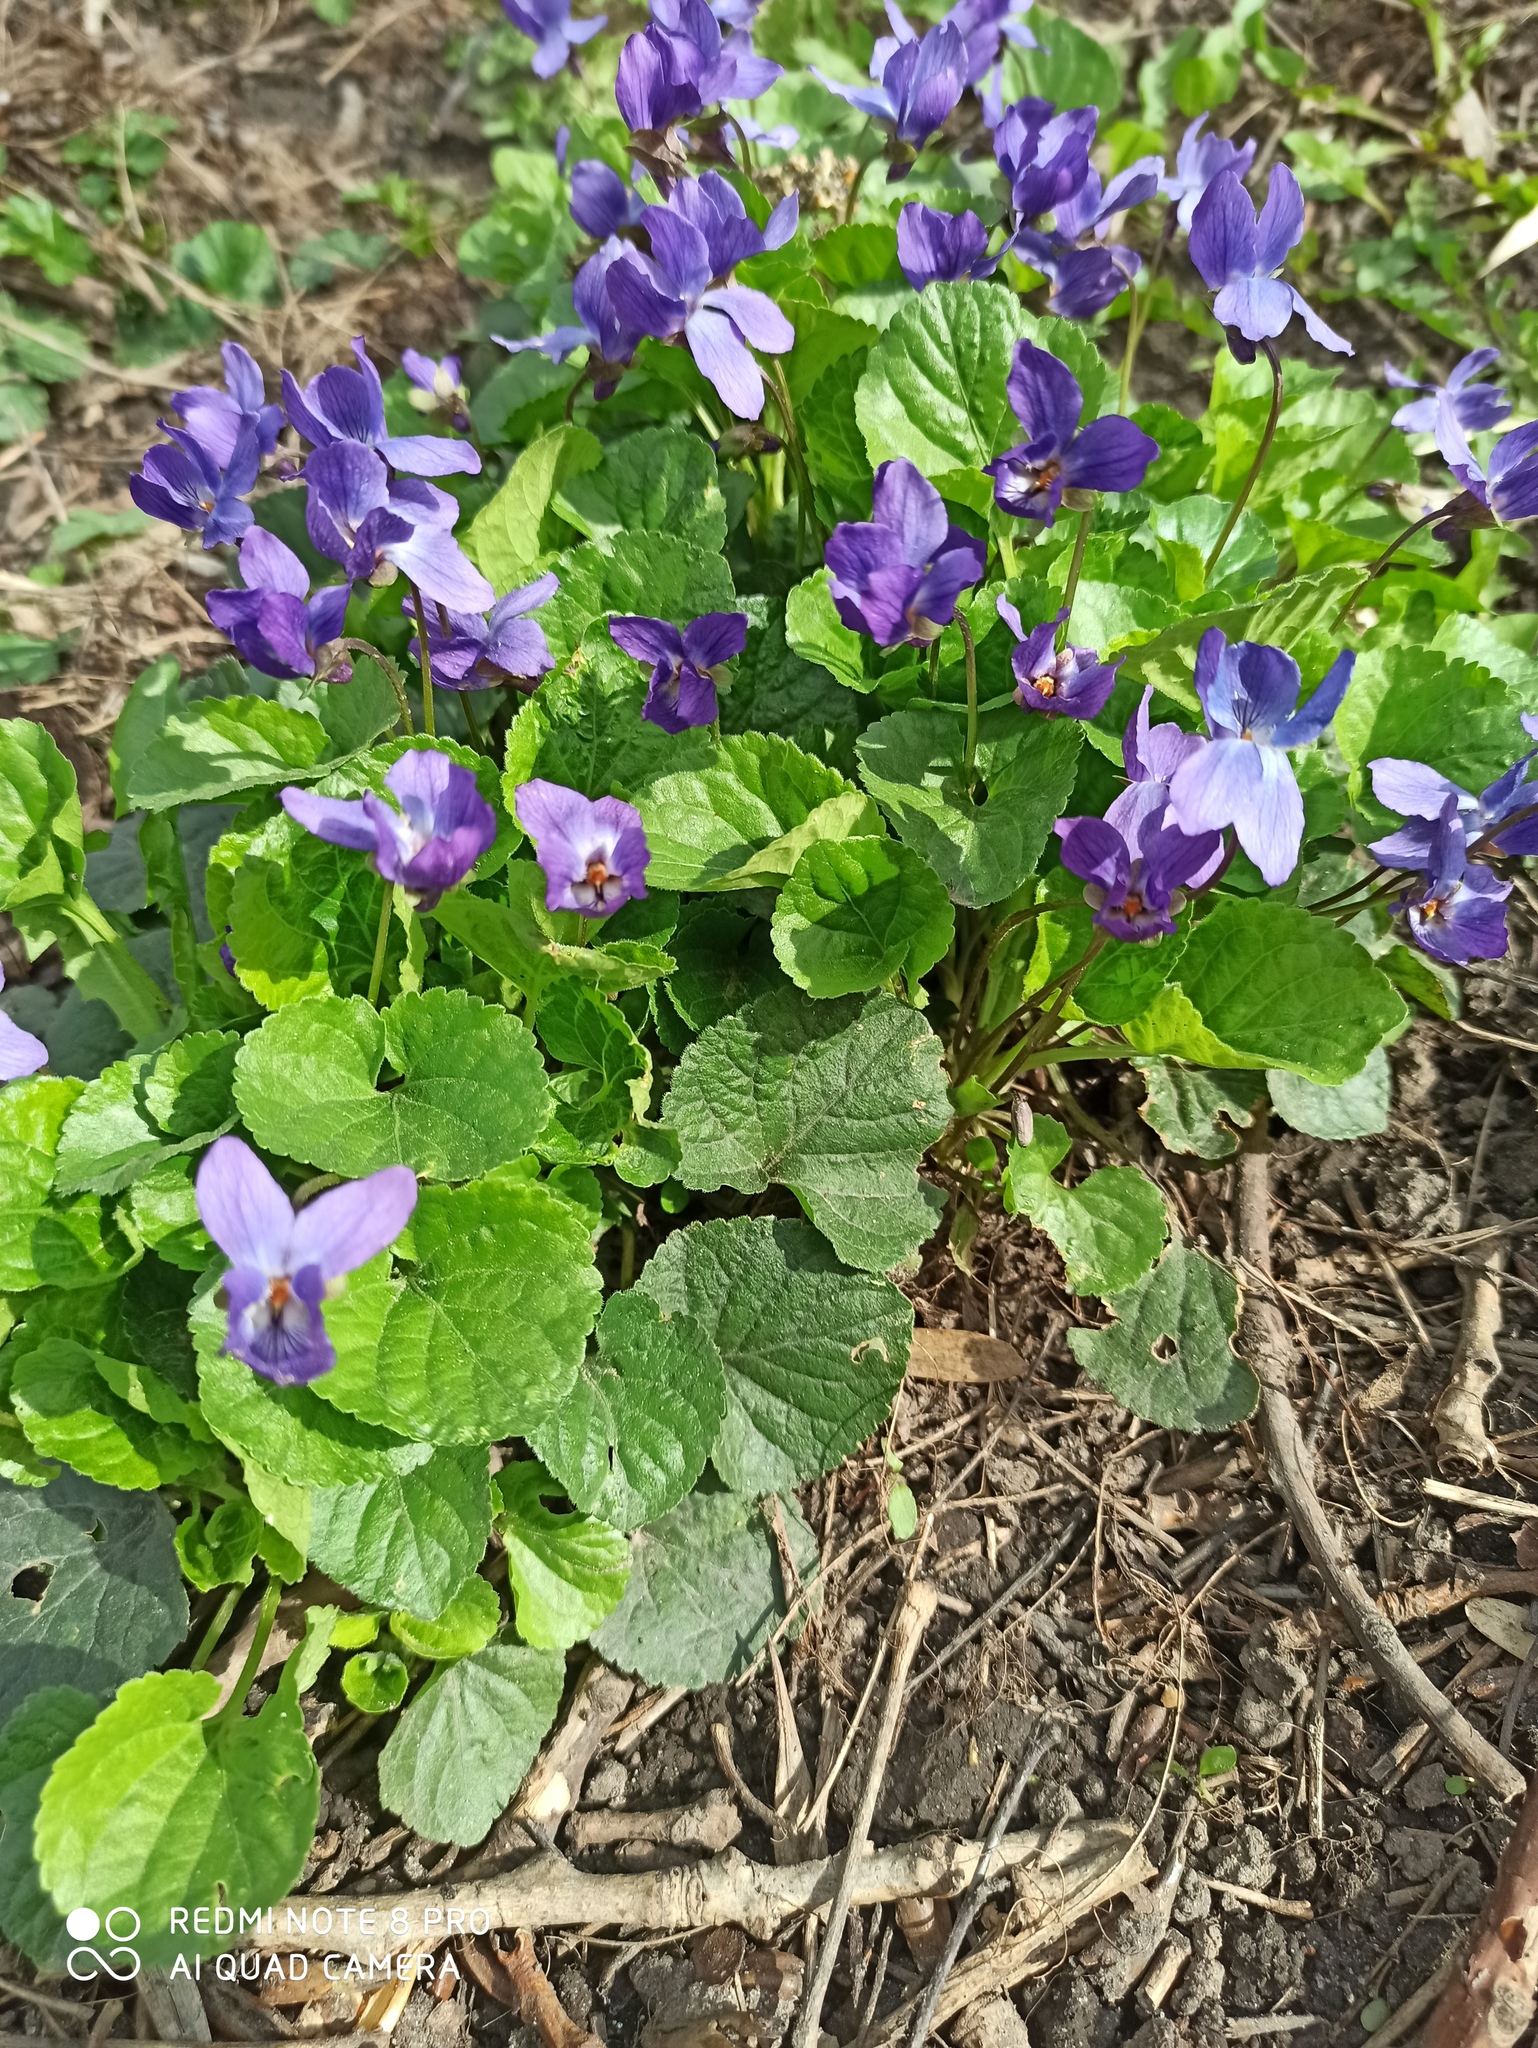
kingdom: Plantae
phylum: Tracheophyta
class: Magnoliopsida
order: Malpighiales
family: Violaceae
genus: Viola
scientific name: Viola odorata
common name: Sweet violet
